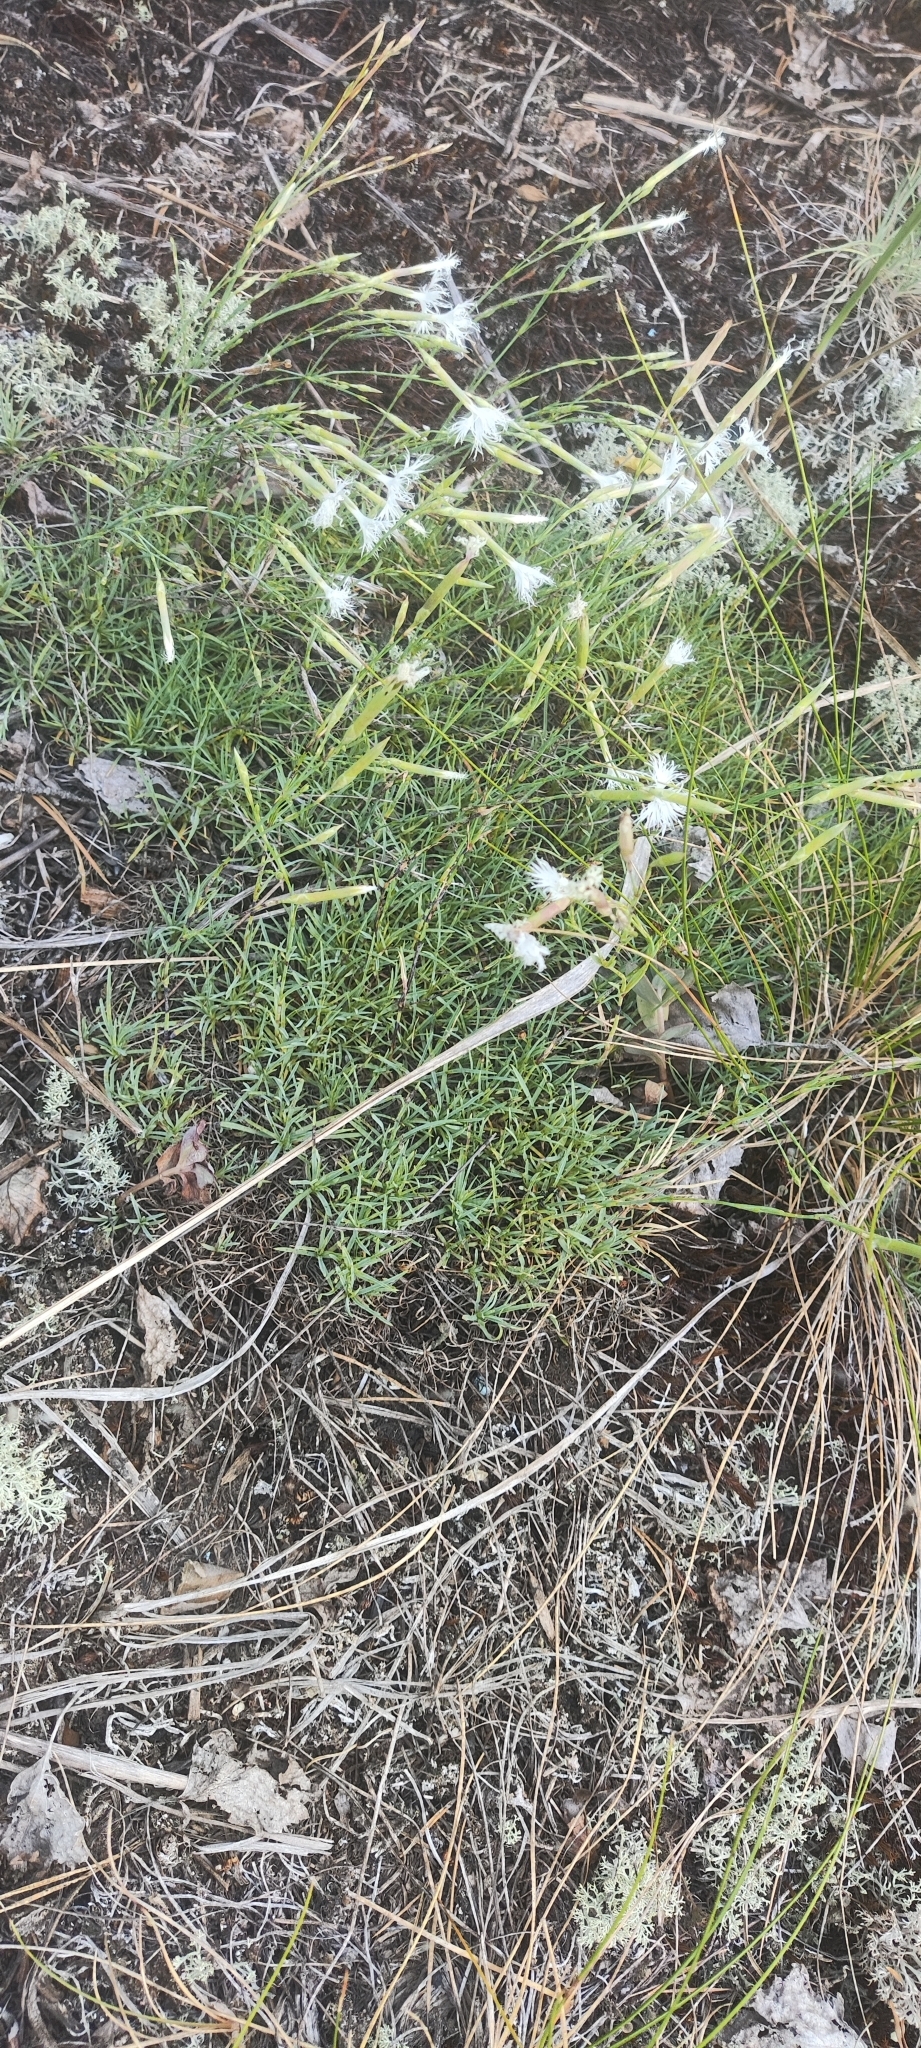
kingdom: Plantae
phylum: Tracheophyta
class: Magnoliopsida
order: Caryophyllales
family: Caryophyllaceae
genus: Dianthus
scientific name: Dianthus arenarius
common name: Stone pink
